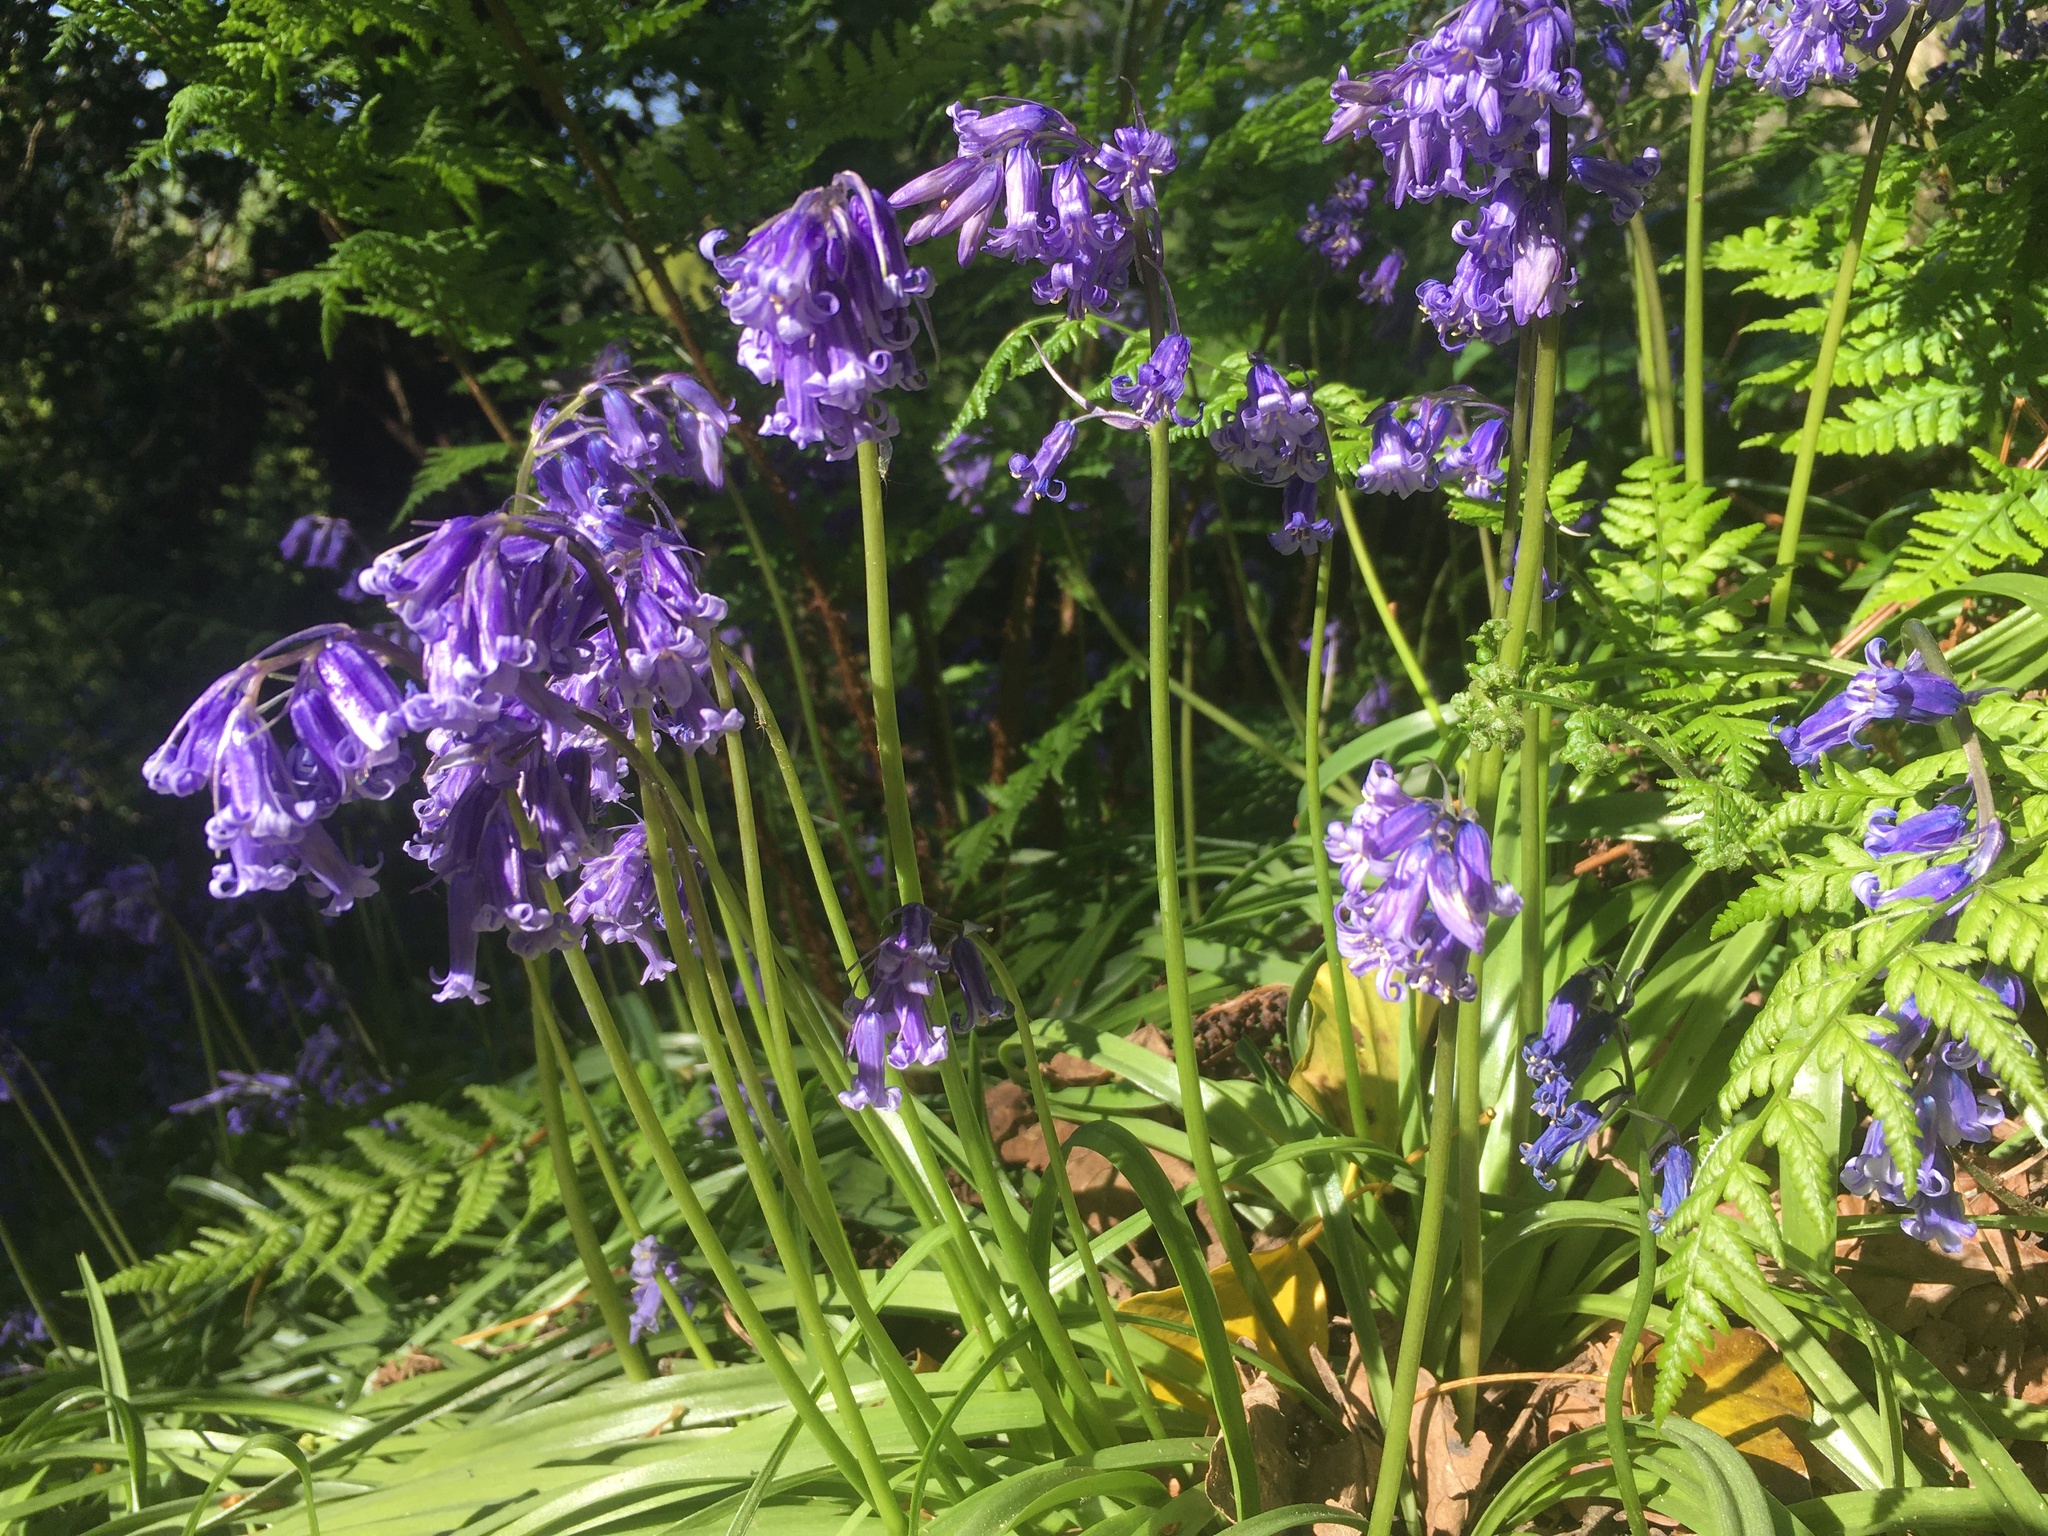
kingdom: Plantae
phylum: Tracheophyta
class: Liliopsida
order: Asparagales
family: Asparagaceae
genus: Hyacinthoides
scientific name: Hyacinthoides non-scripta
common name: Bluebell
